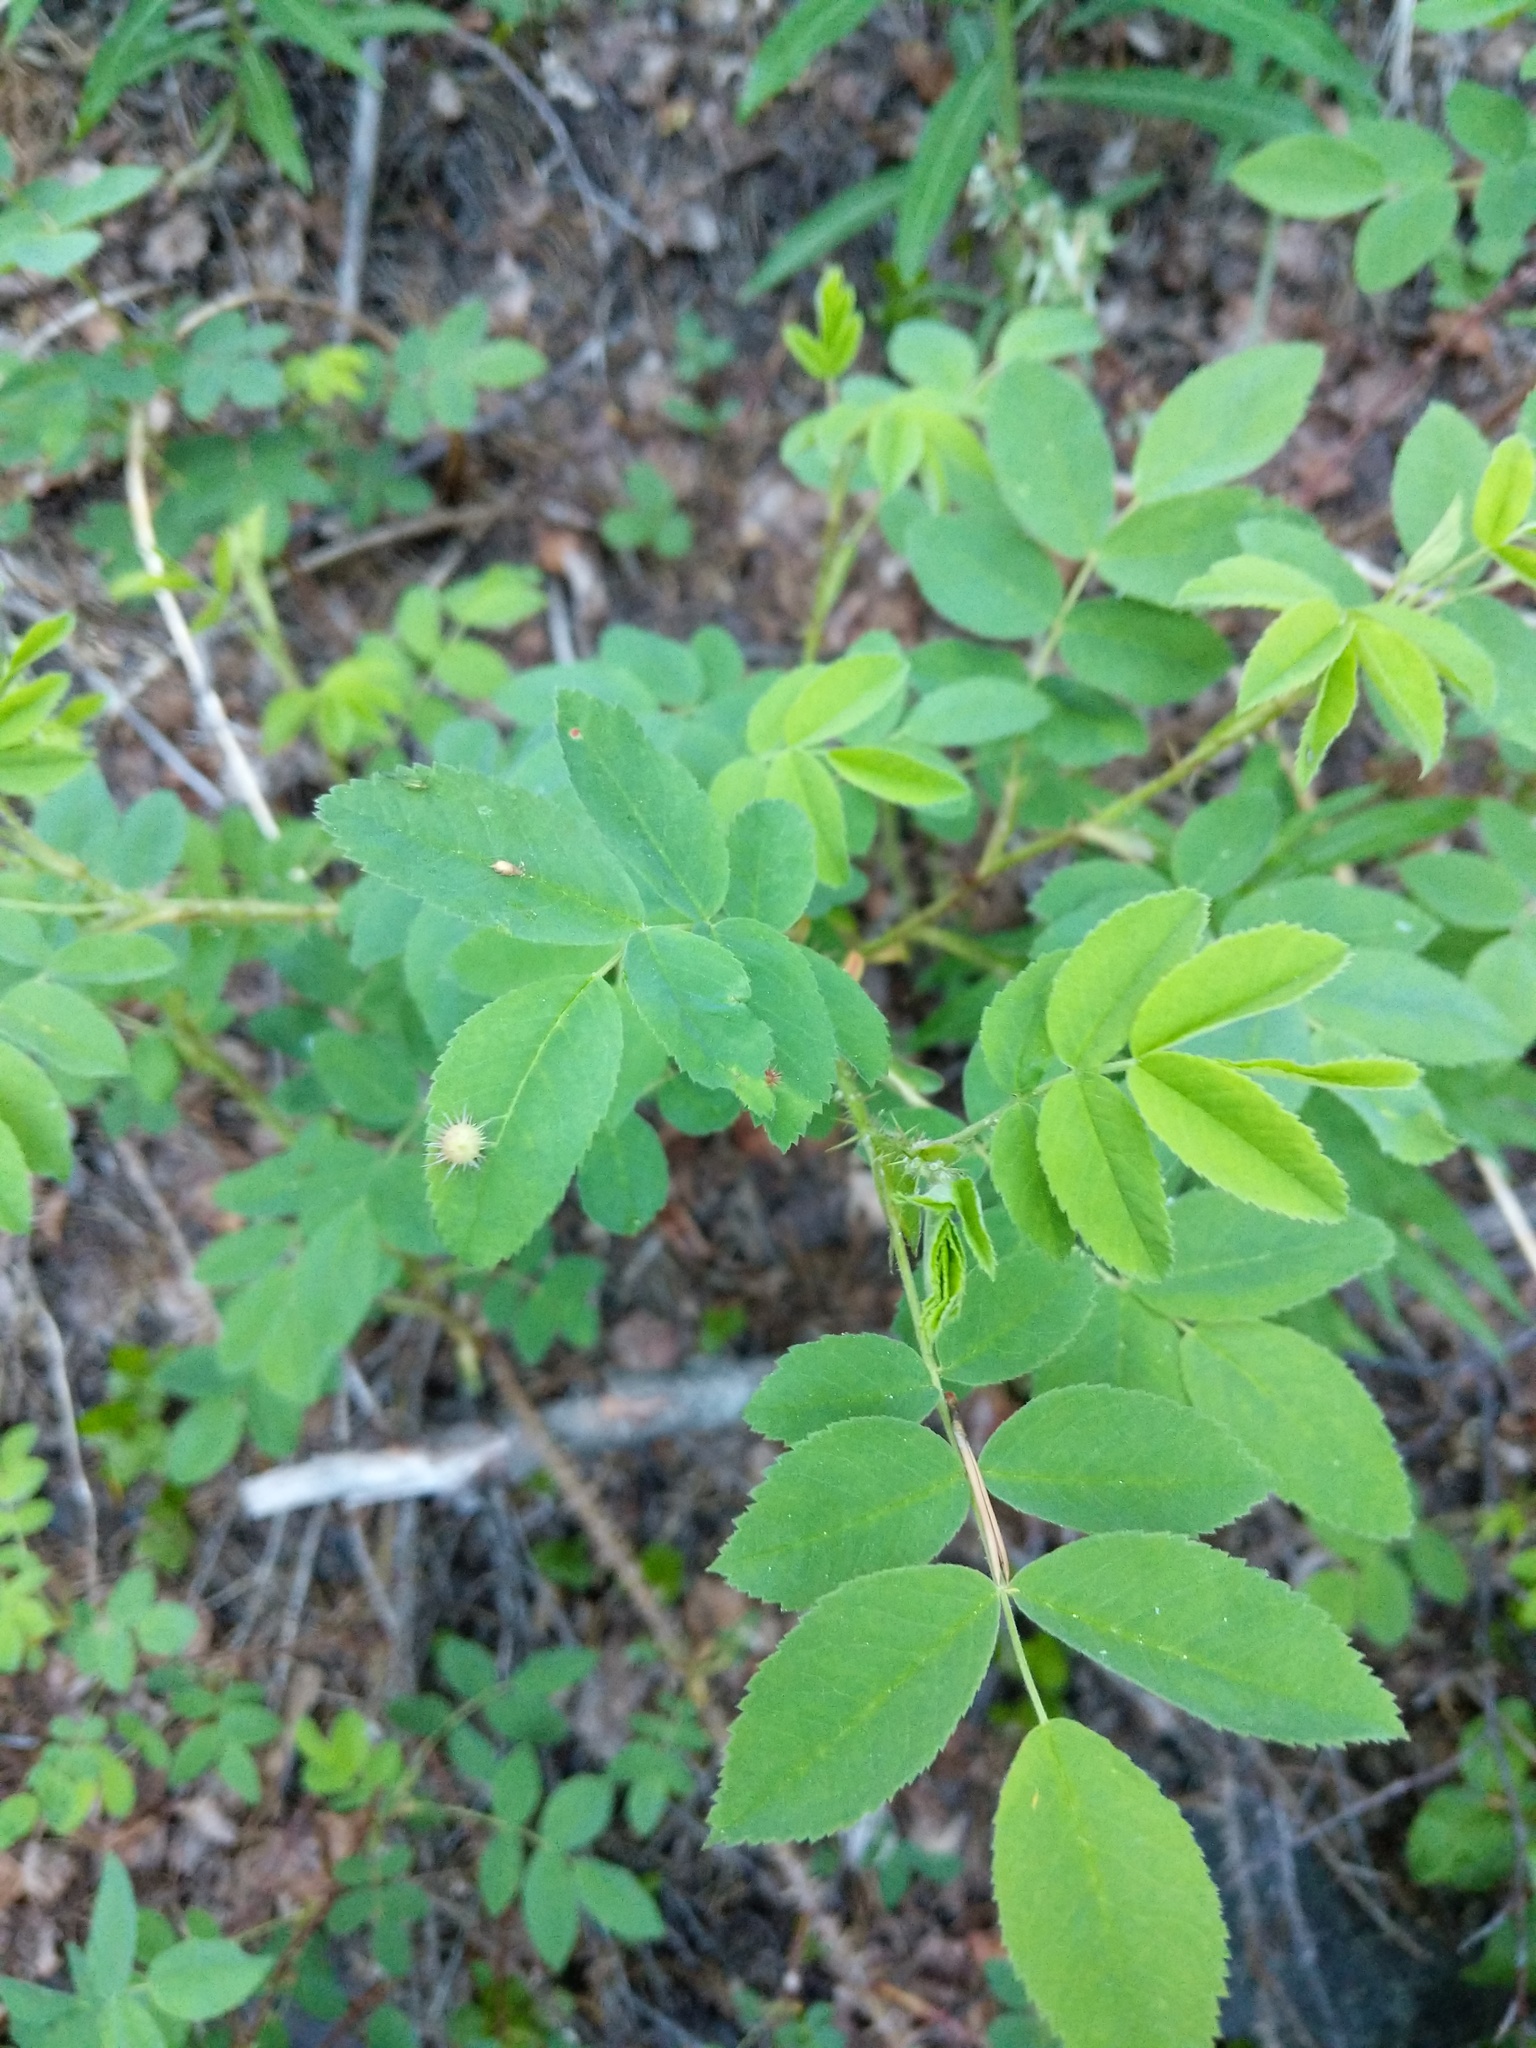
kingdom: Animalia
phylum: Arthropoda
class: Insecta
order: Hymenoptera
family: Cynipidae
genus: Diplolepis
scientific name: Diplolepis polita
